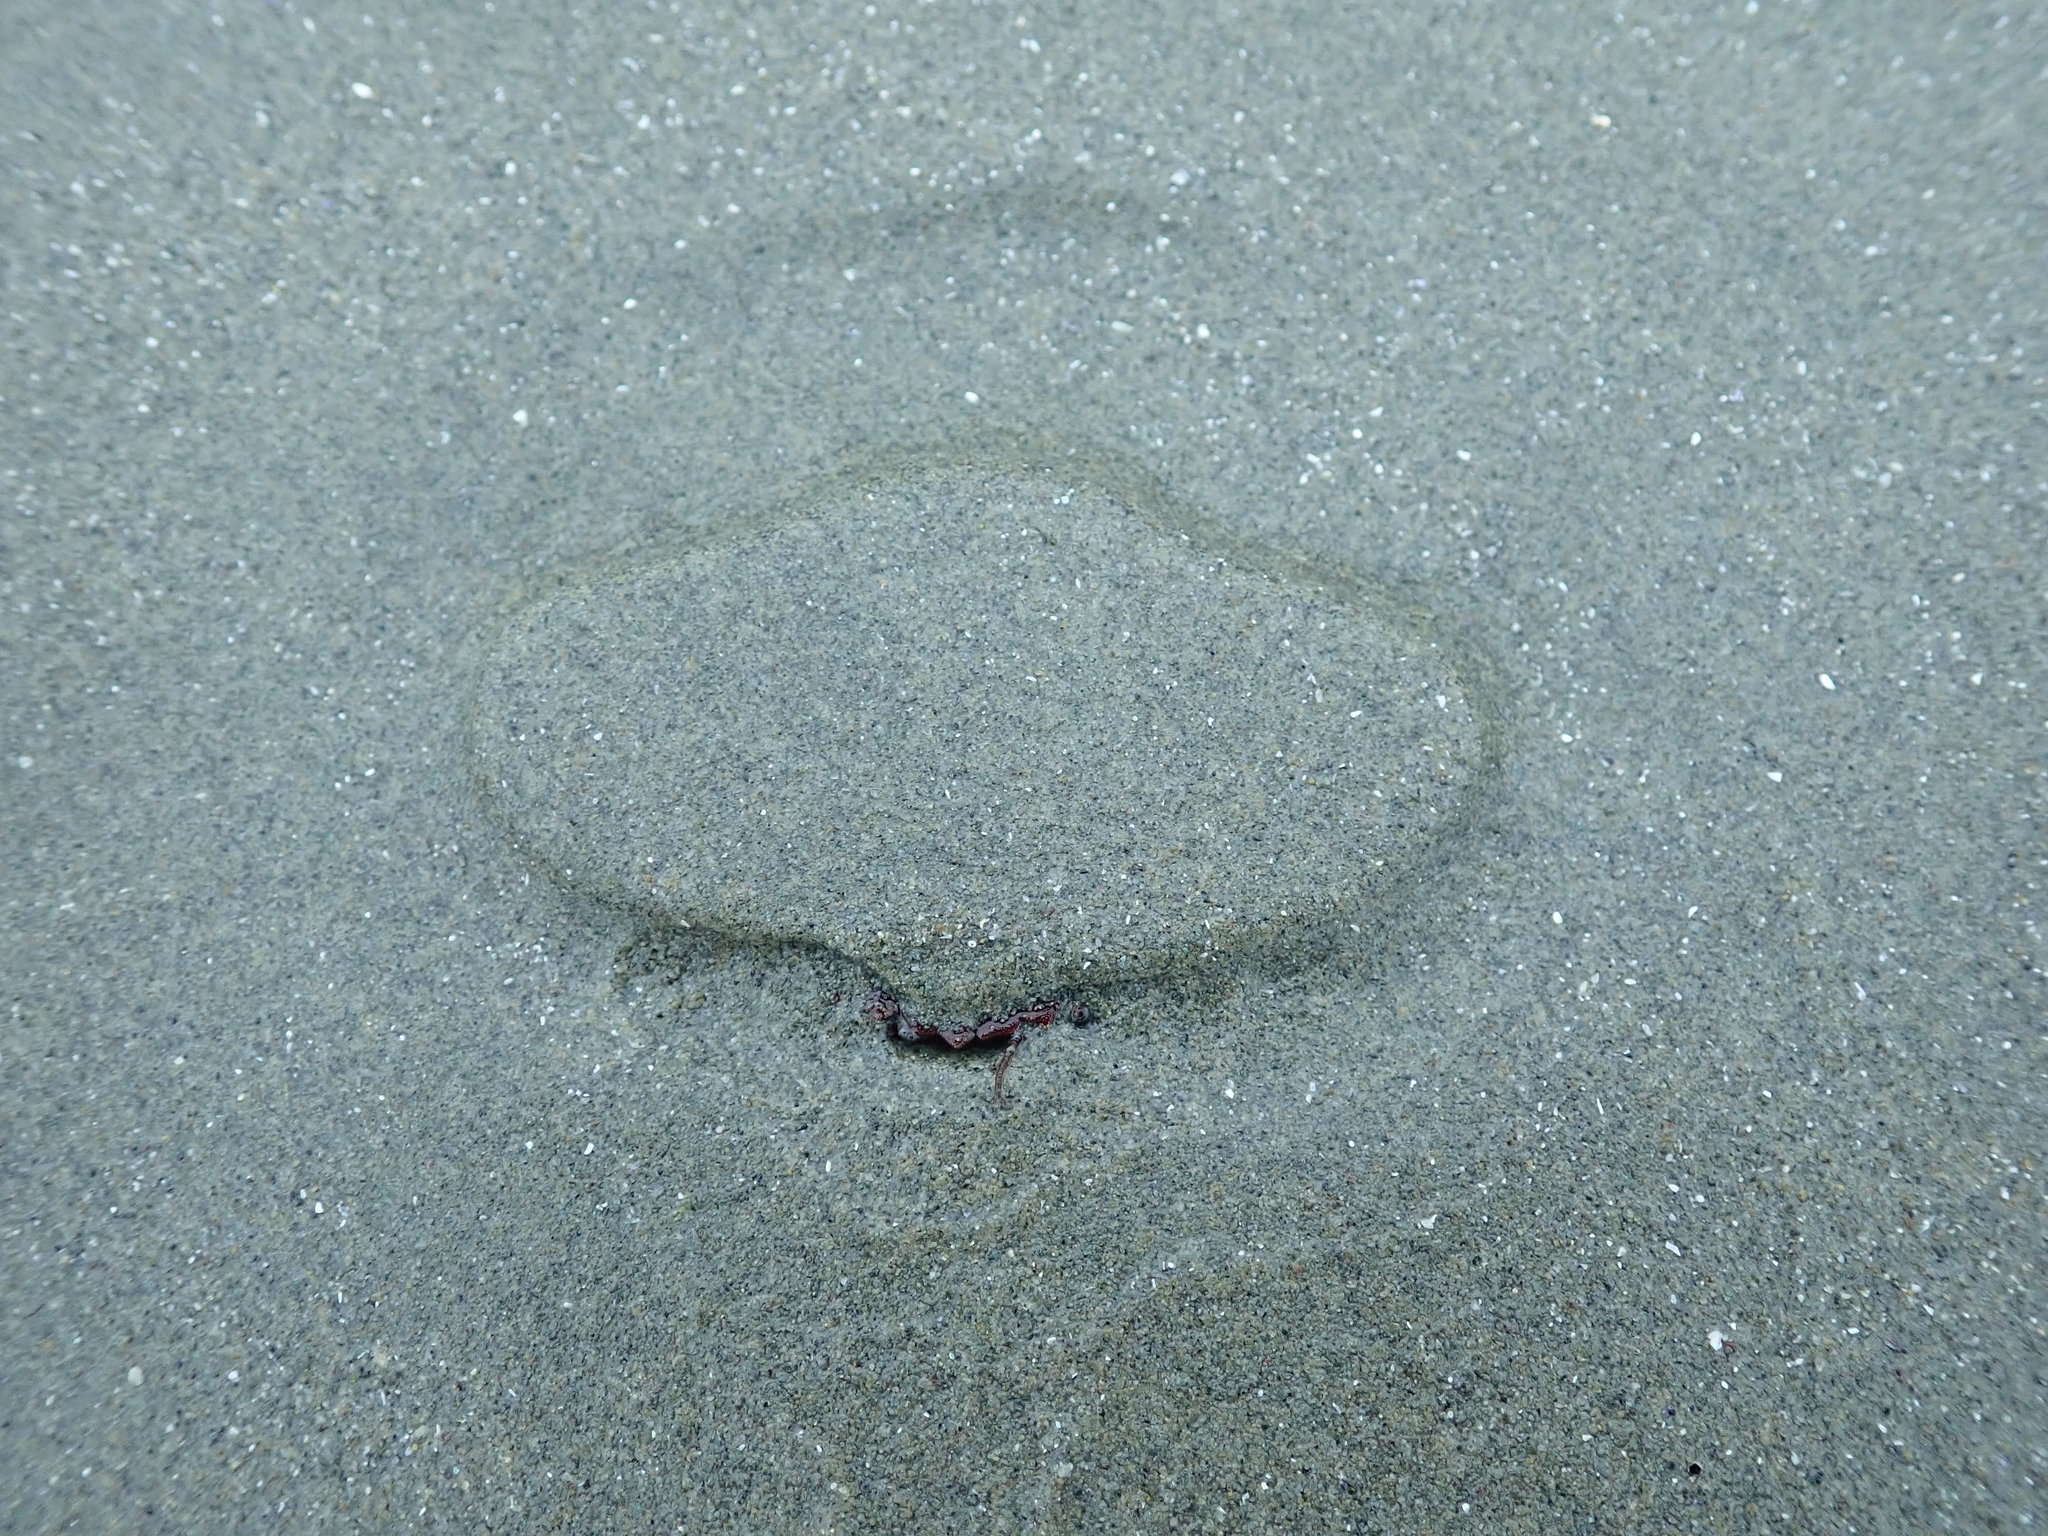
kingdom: Animalia
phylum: Arthropoda
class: Malacostraca
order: Decapoda
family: Cancridae
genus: Cancer
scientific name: Cancer productus
